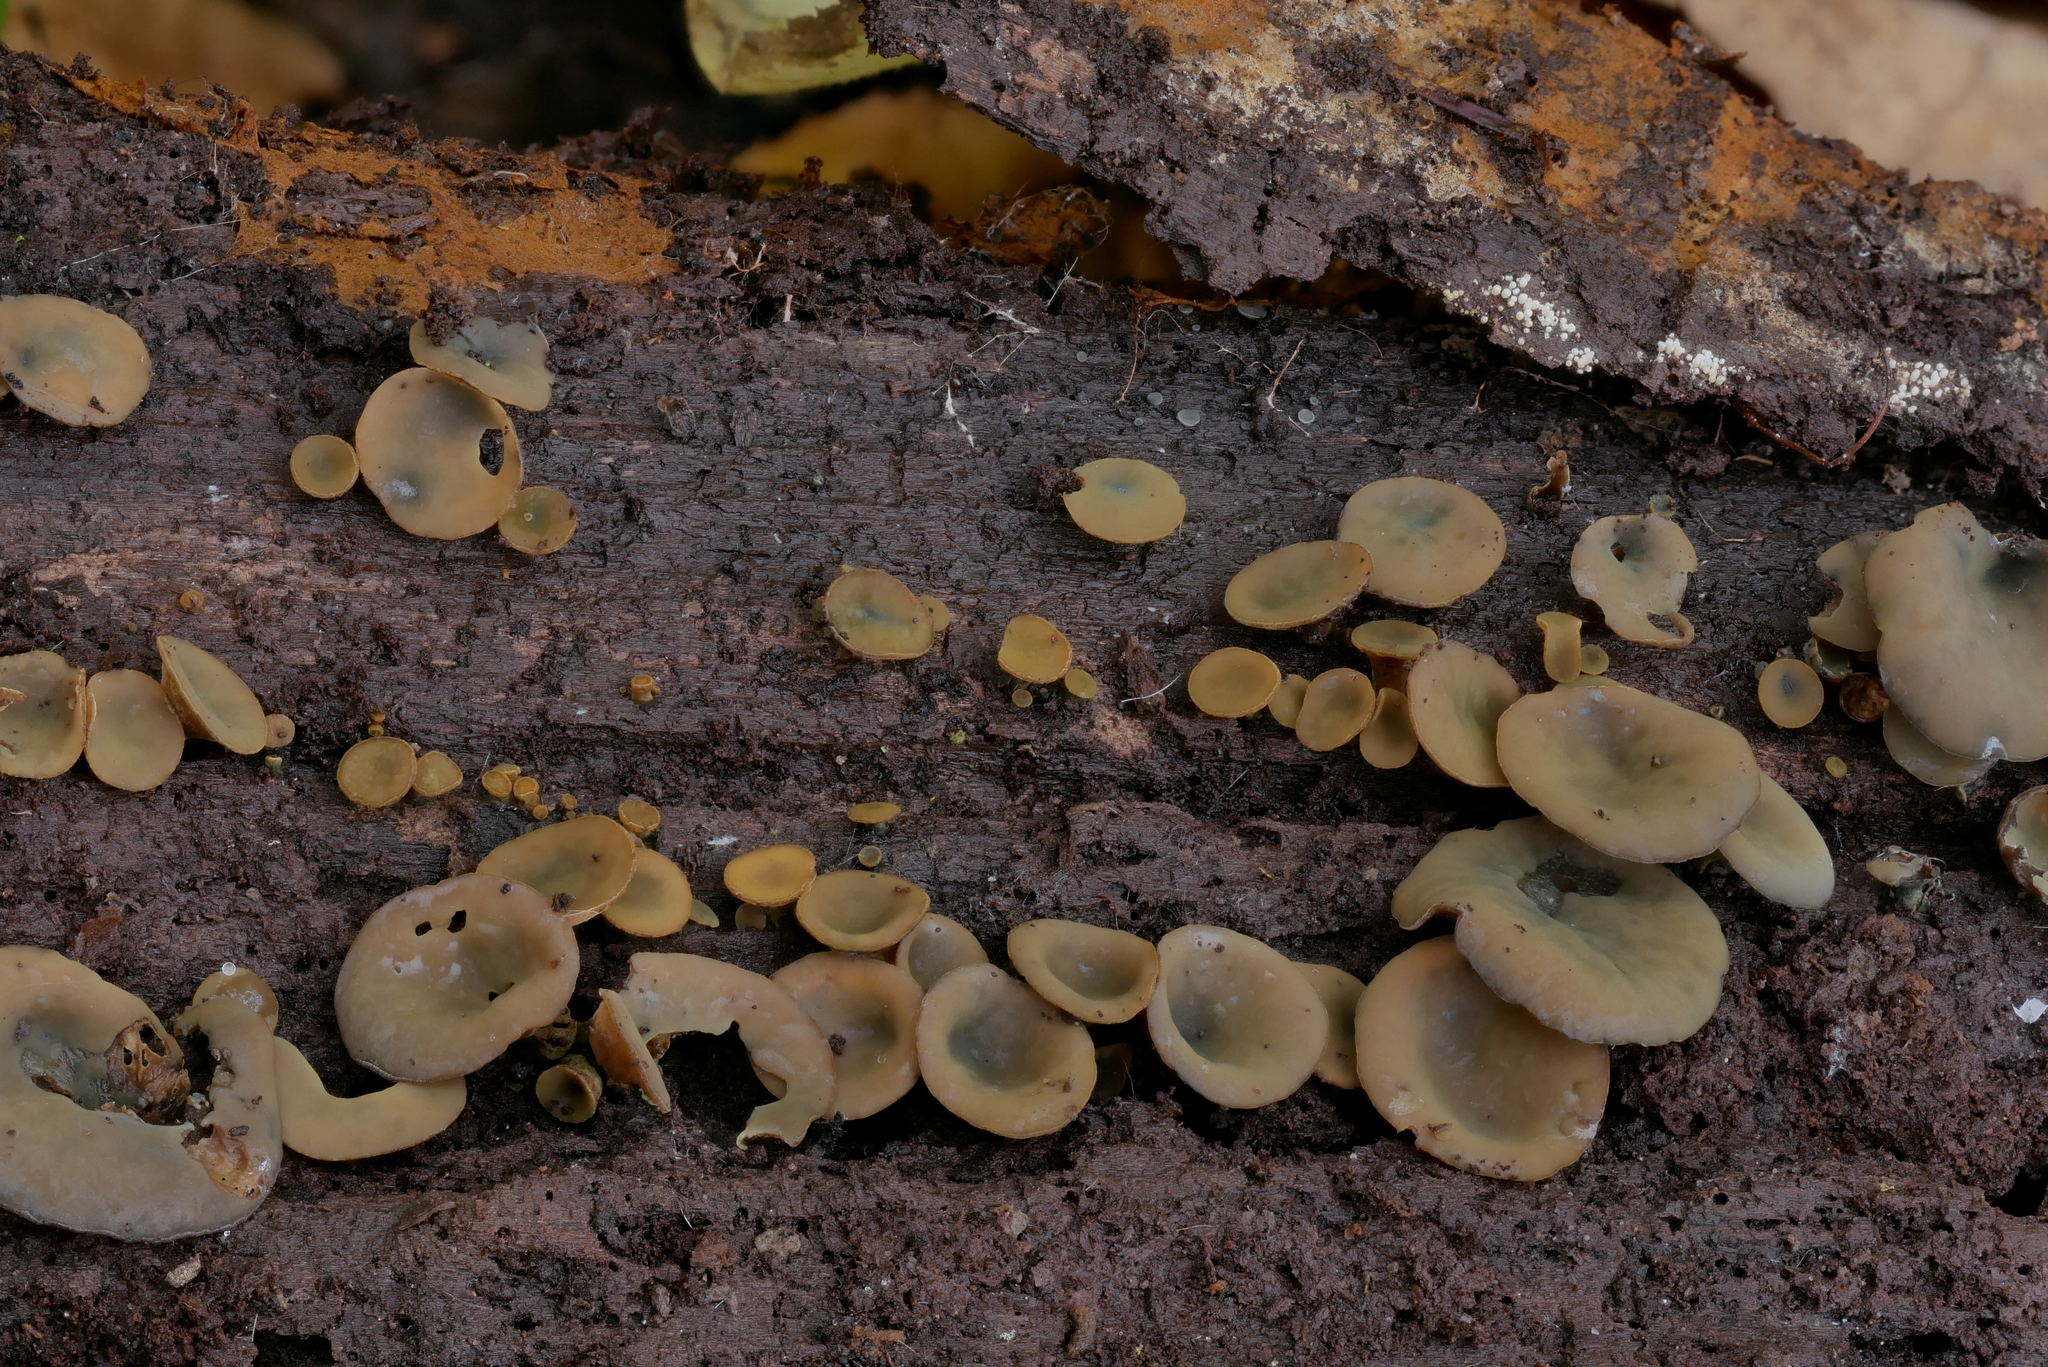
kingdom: Fungi
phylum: Ascomycota
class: Leotiomycetes
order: Helotiales
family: Cenangiaceae
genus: Chlorencoelia
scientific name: Chlorencoelia versiformis
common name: Flea's ear
